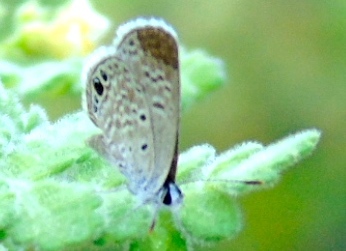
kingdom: Animalia
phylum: Arthropoda
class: Insecta
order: Lepidoptera
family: Lycaenidae
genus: Hemiargus
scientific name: Hemiargus ceraunus
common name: Ceraunus blue
